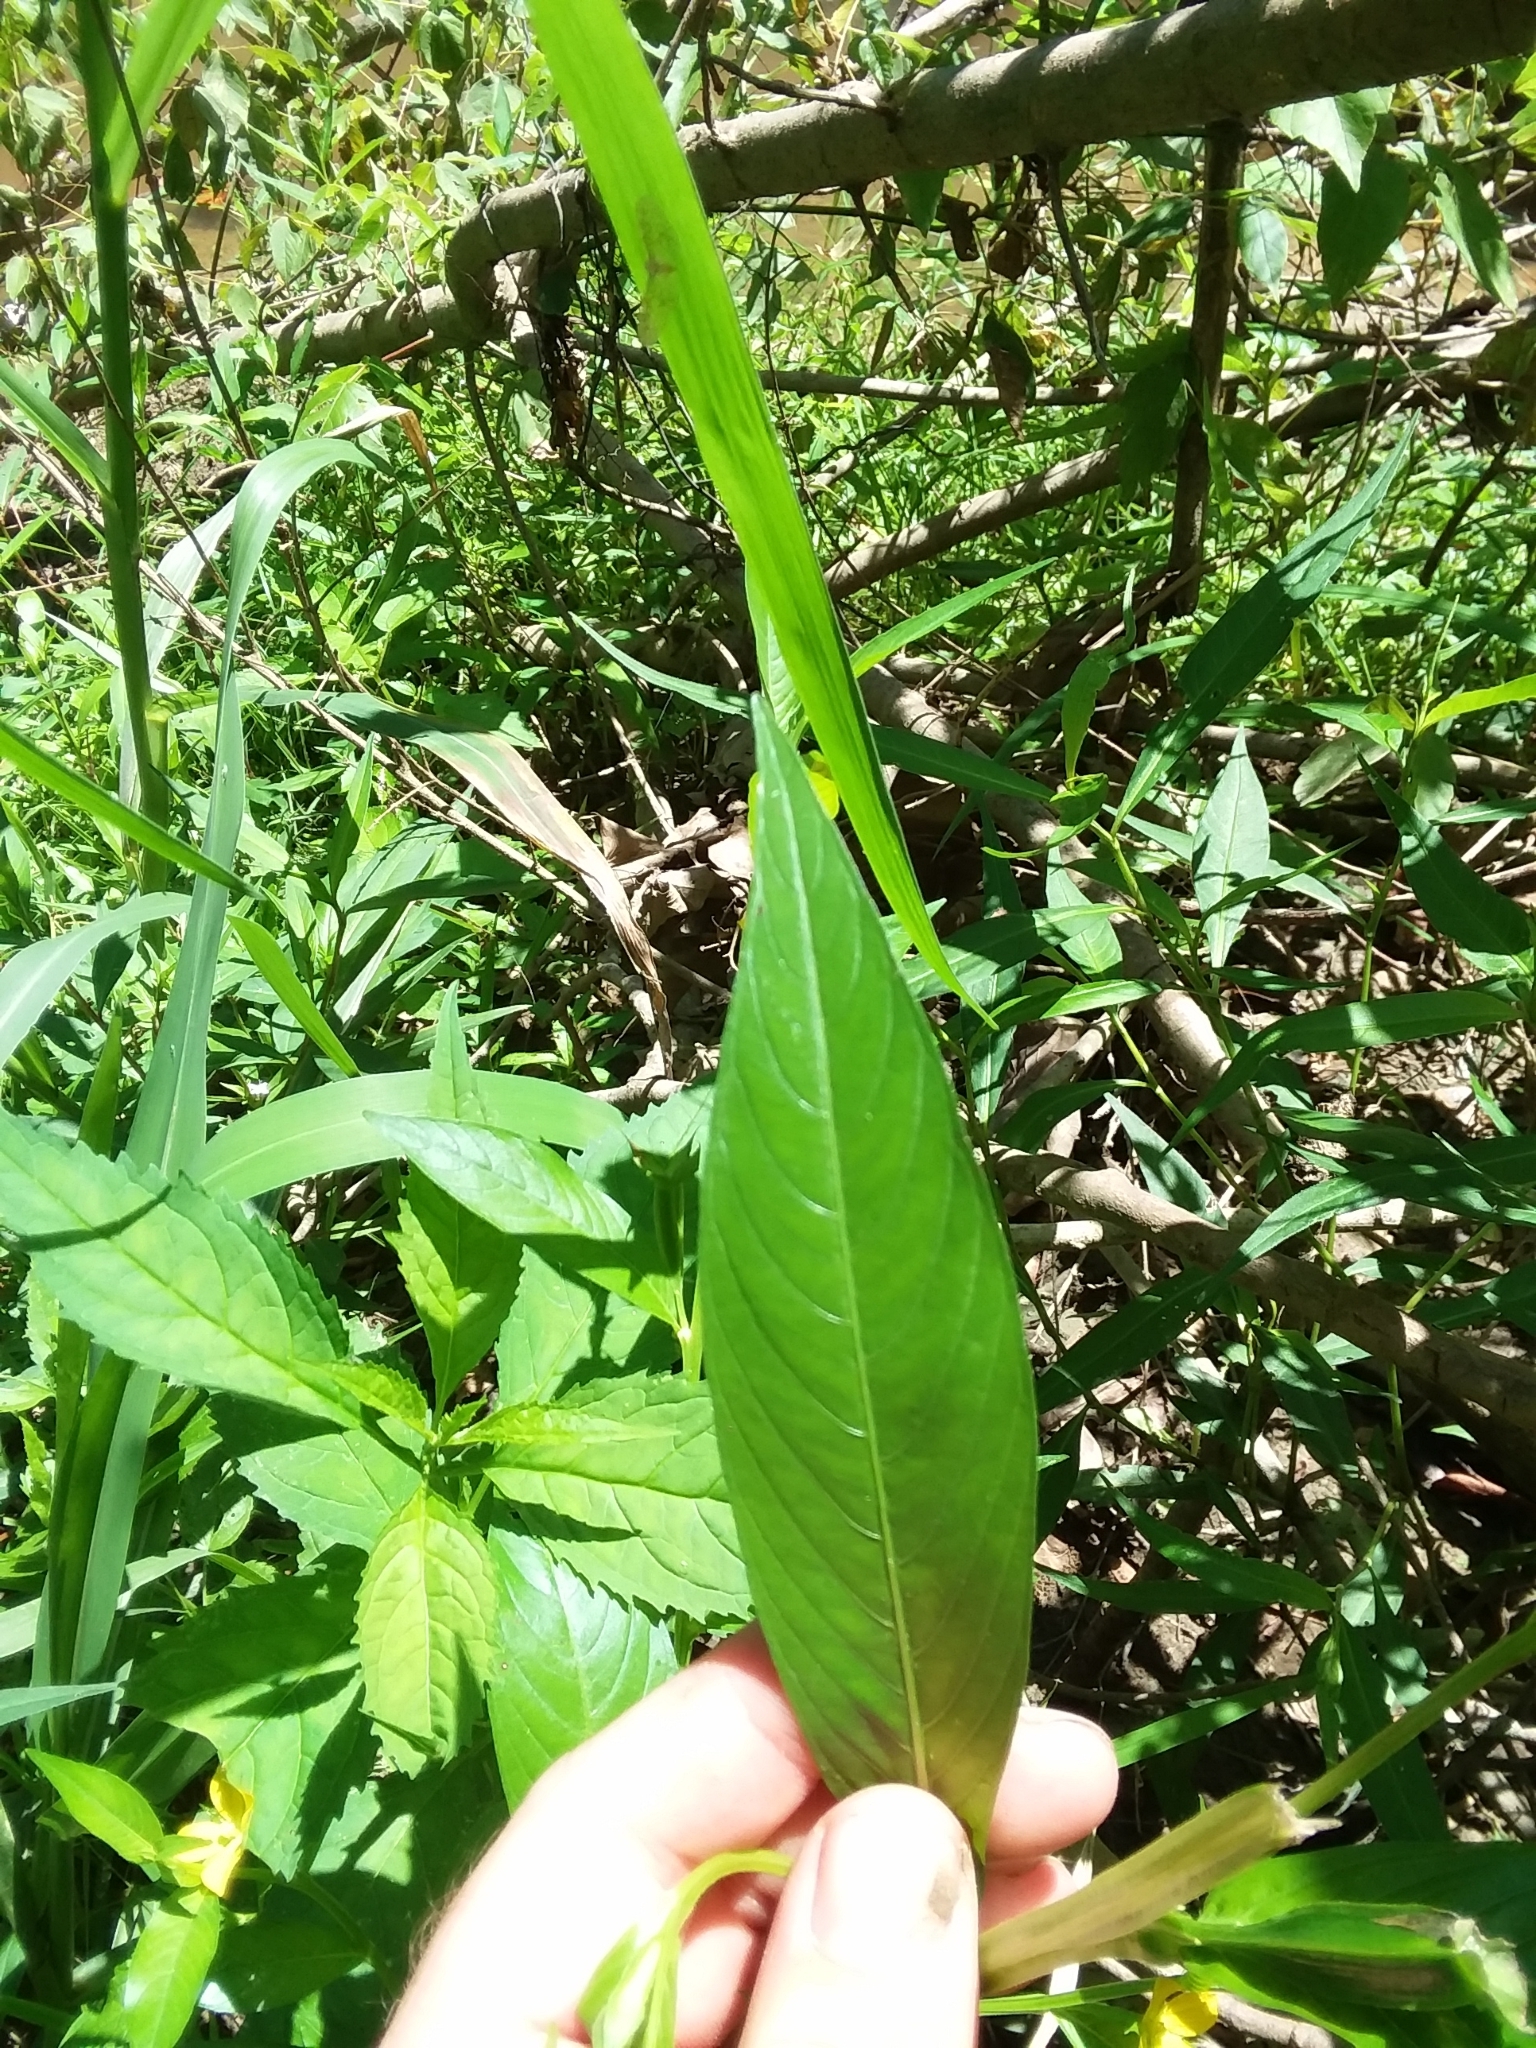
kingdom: Plantae
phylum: Tracheophyta
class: Magnoliopsida
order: Myrtales
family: Onagraceae
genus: Ludwigia
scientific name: Ludwigia decurrens
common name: Winged water-primrose
